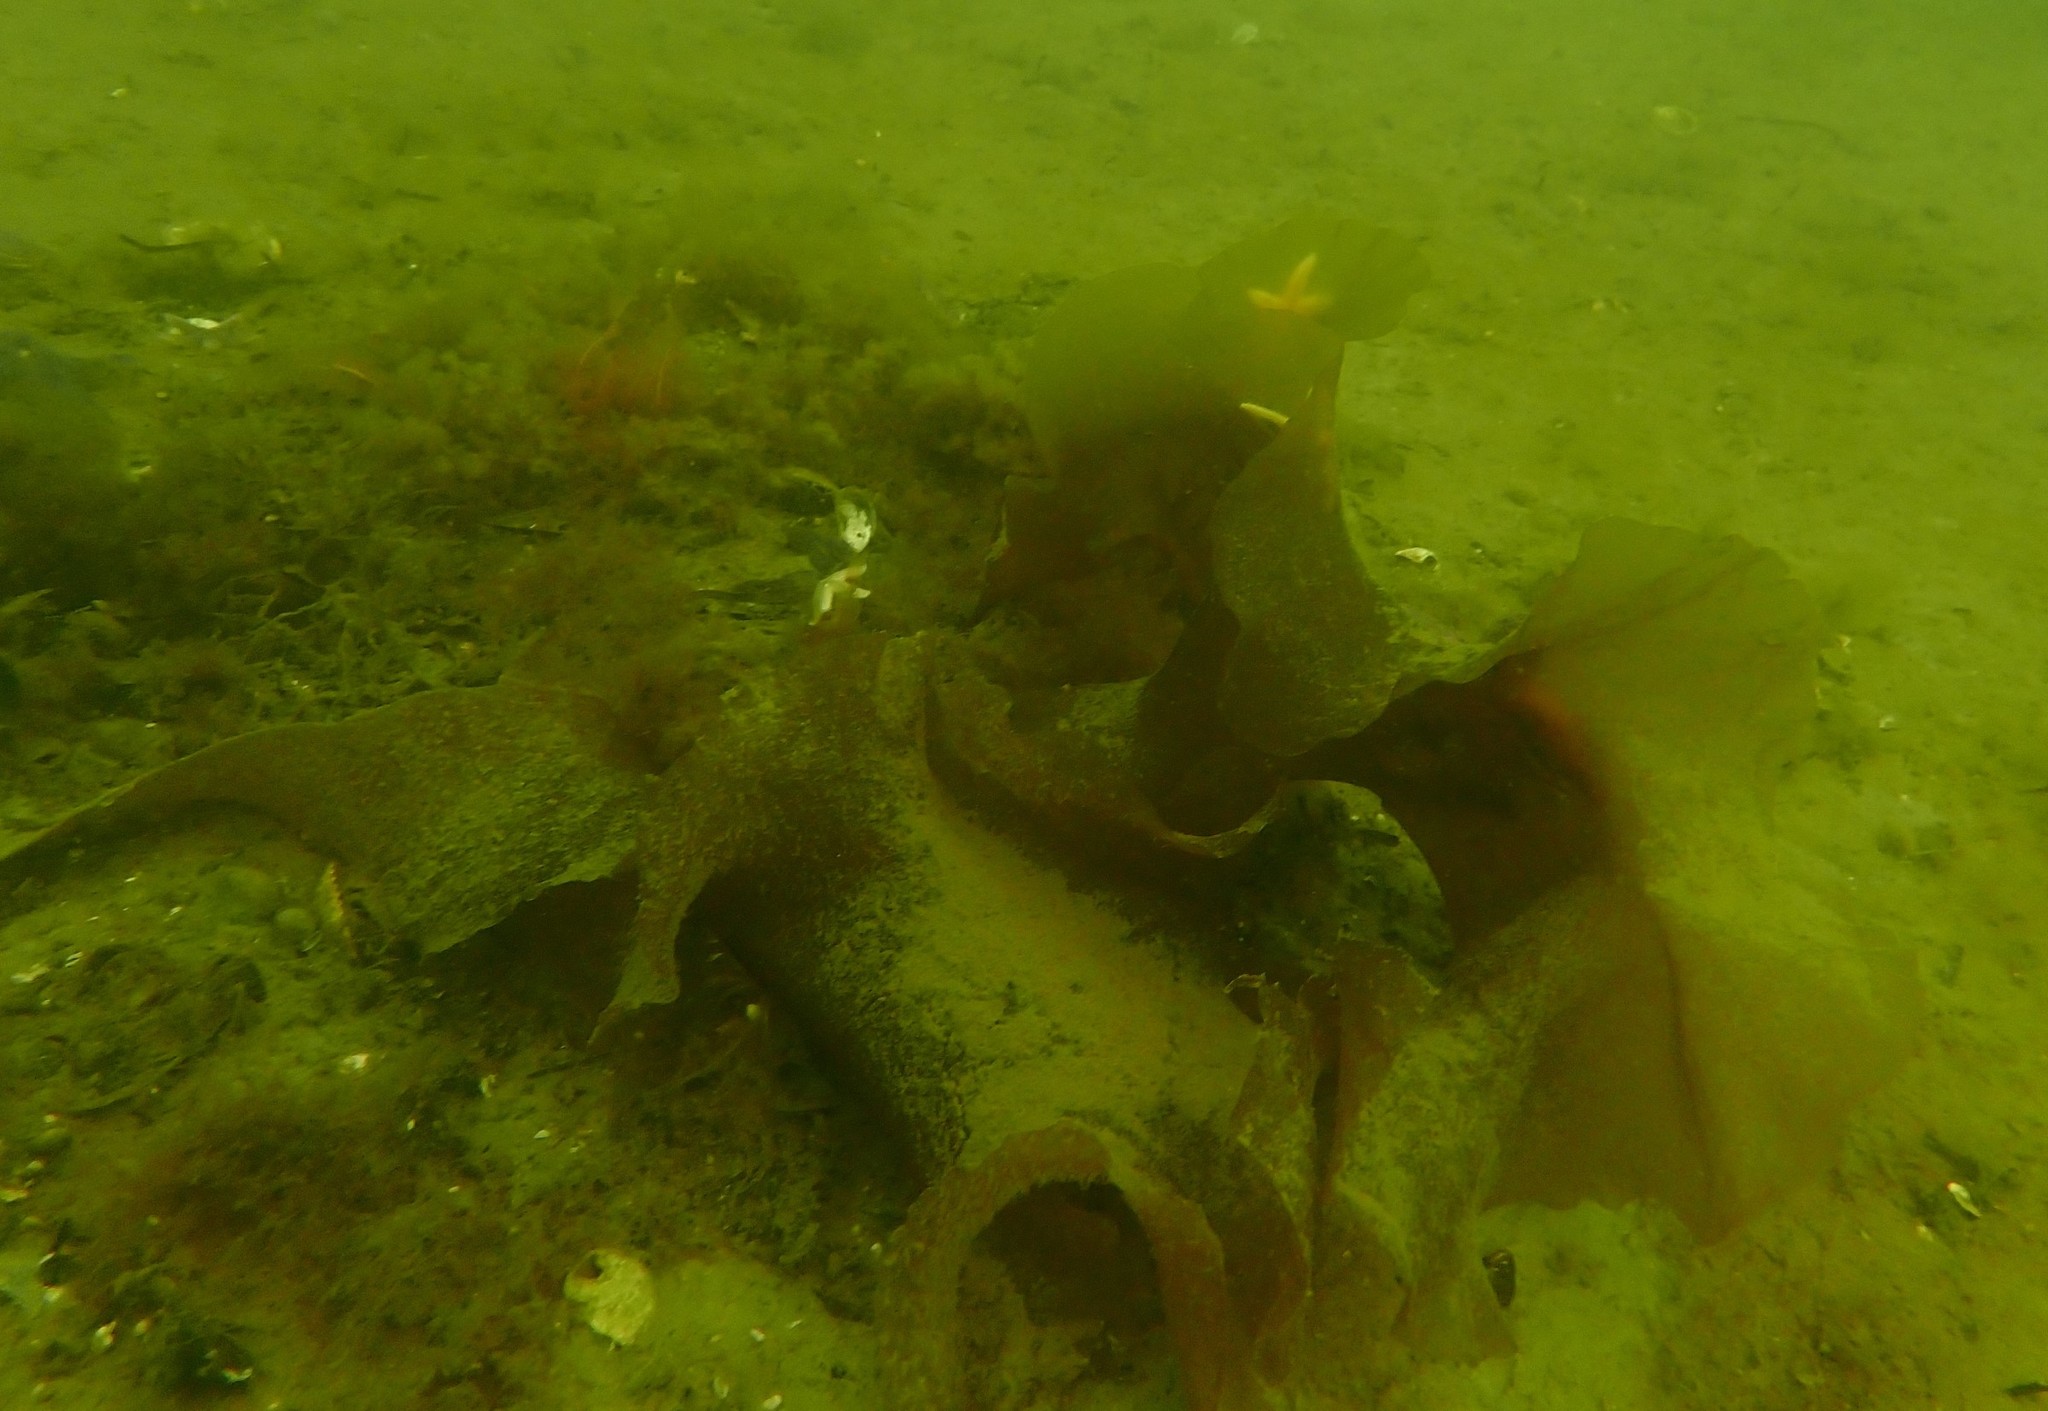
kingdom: Chromista
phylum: Ochrophyta
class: Phaeophyceae
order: Laminariales
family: Laminariaceae
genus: Saccharina
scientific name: Saccharina latissima
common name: Poor man's weather glass
